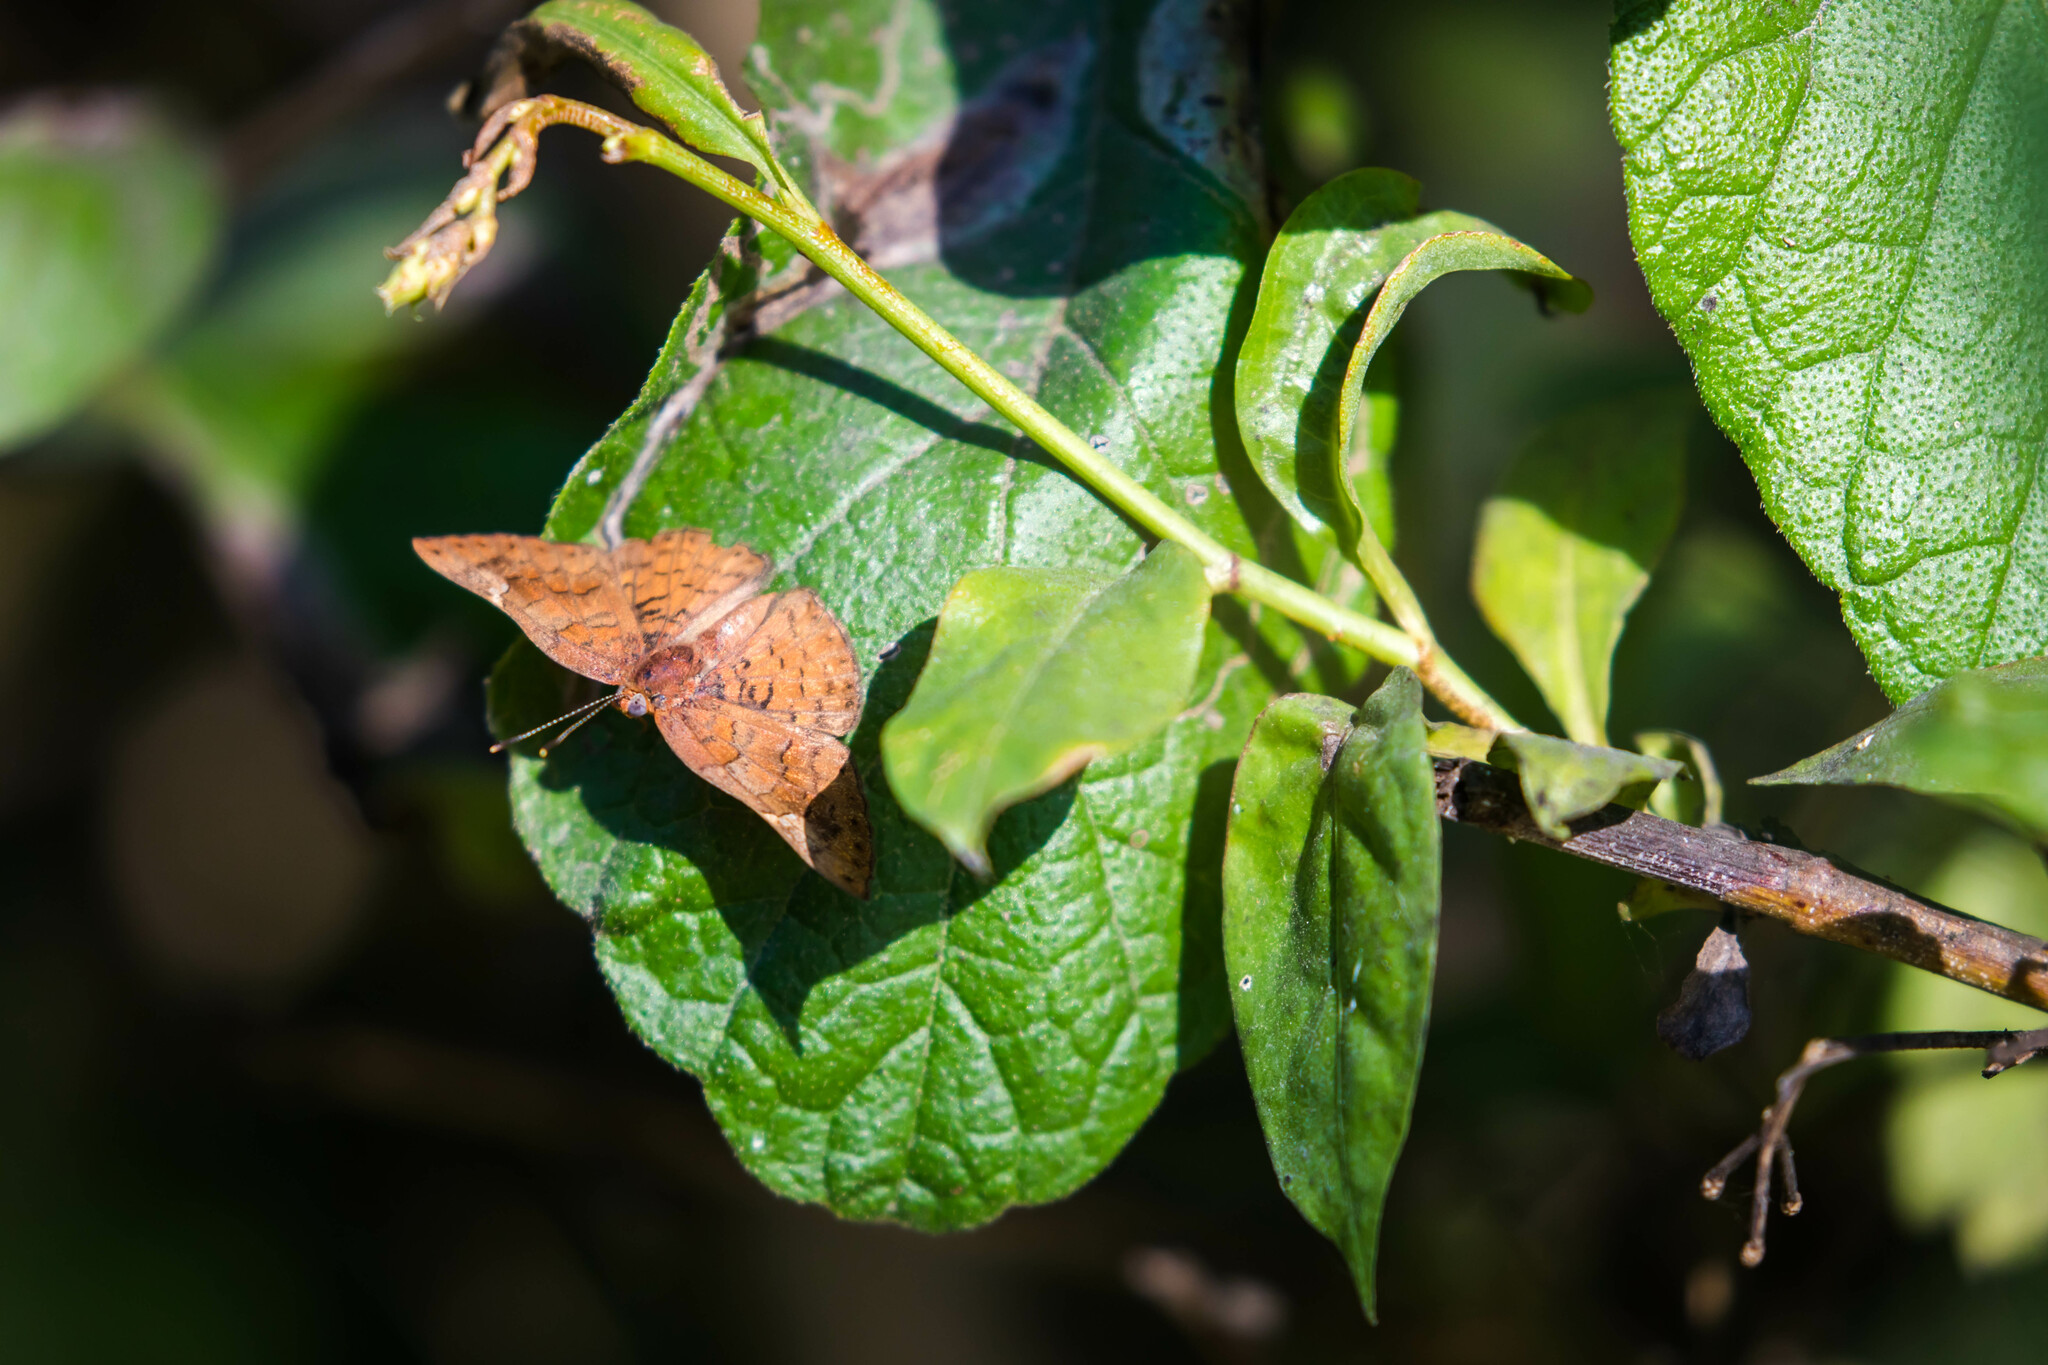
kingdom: Animalia
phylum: Arthropoda
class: Insecta
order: Lepidoptera
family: Riodinidae
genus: Curvie
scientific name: Curvie emesia
